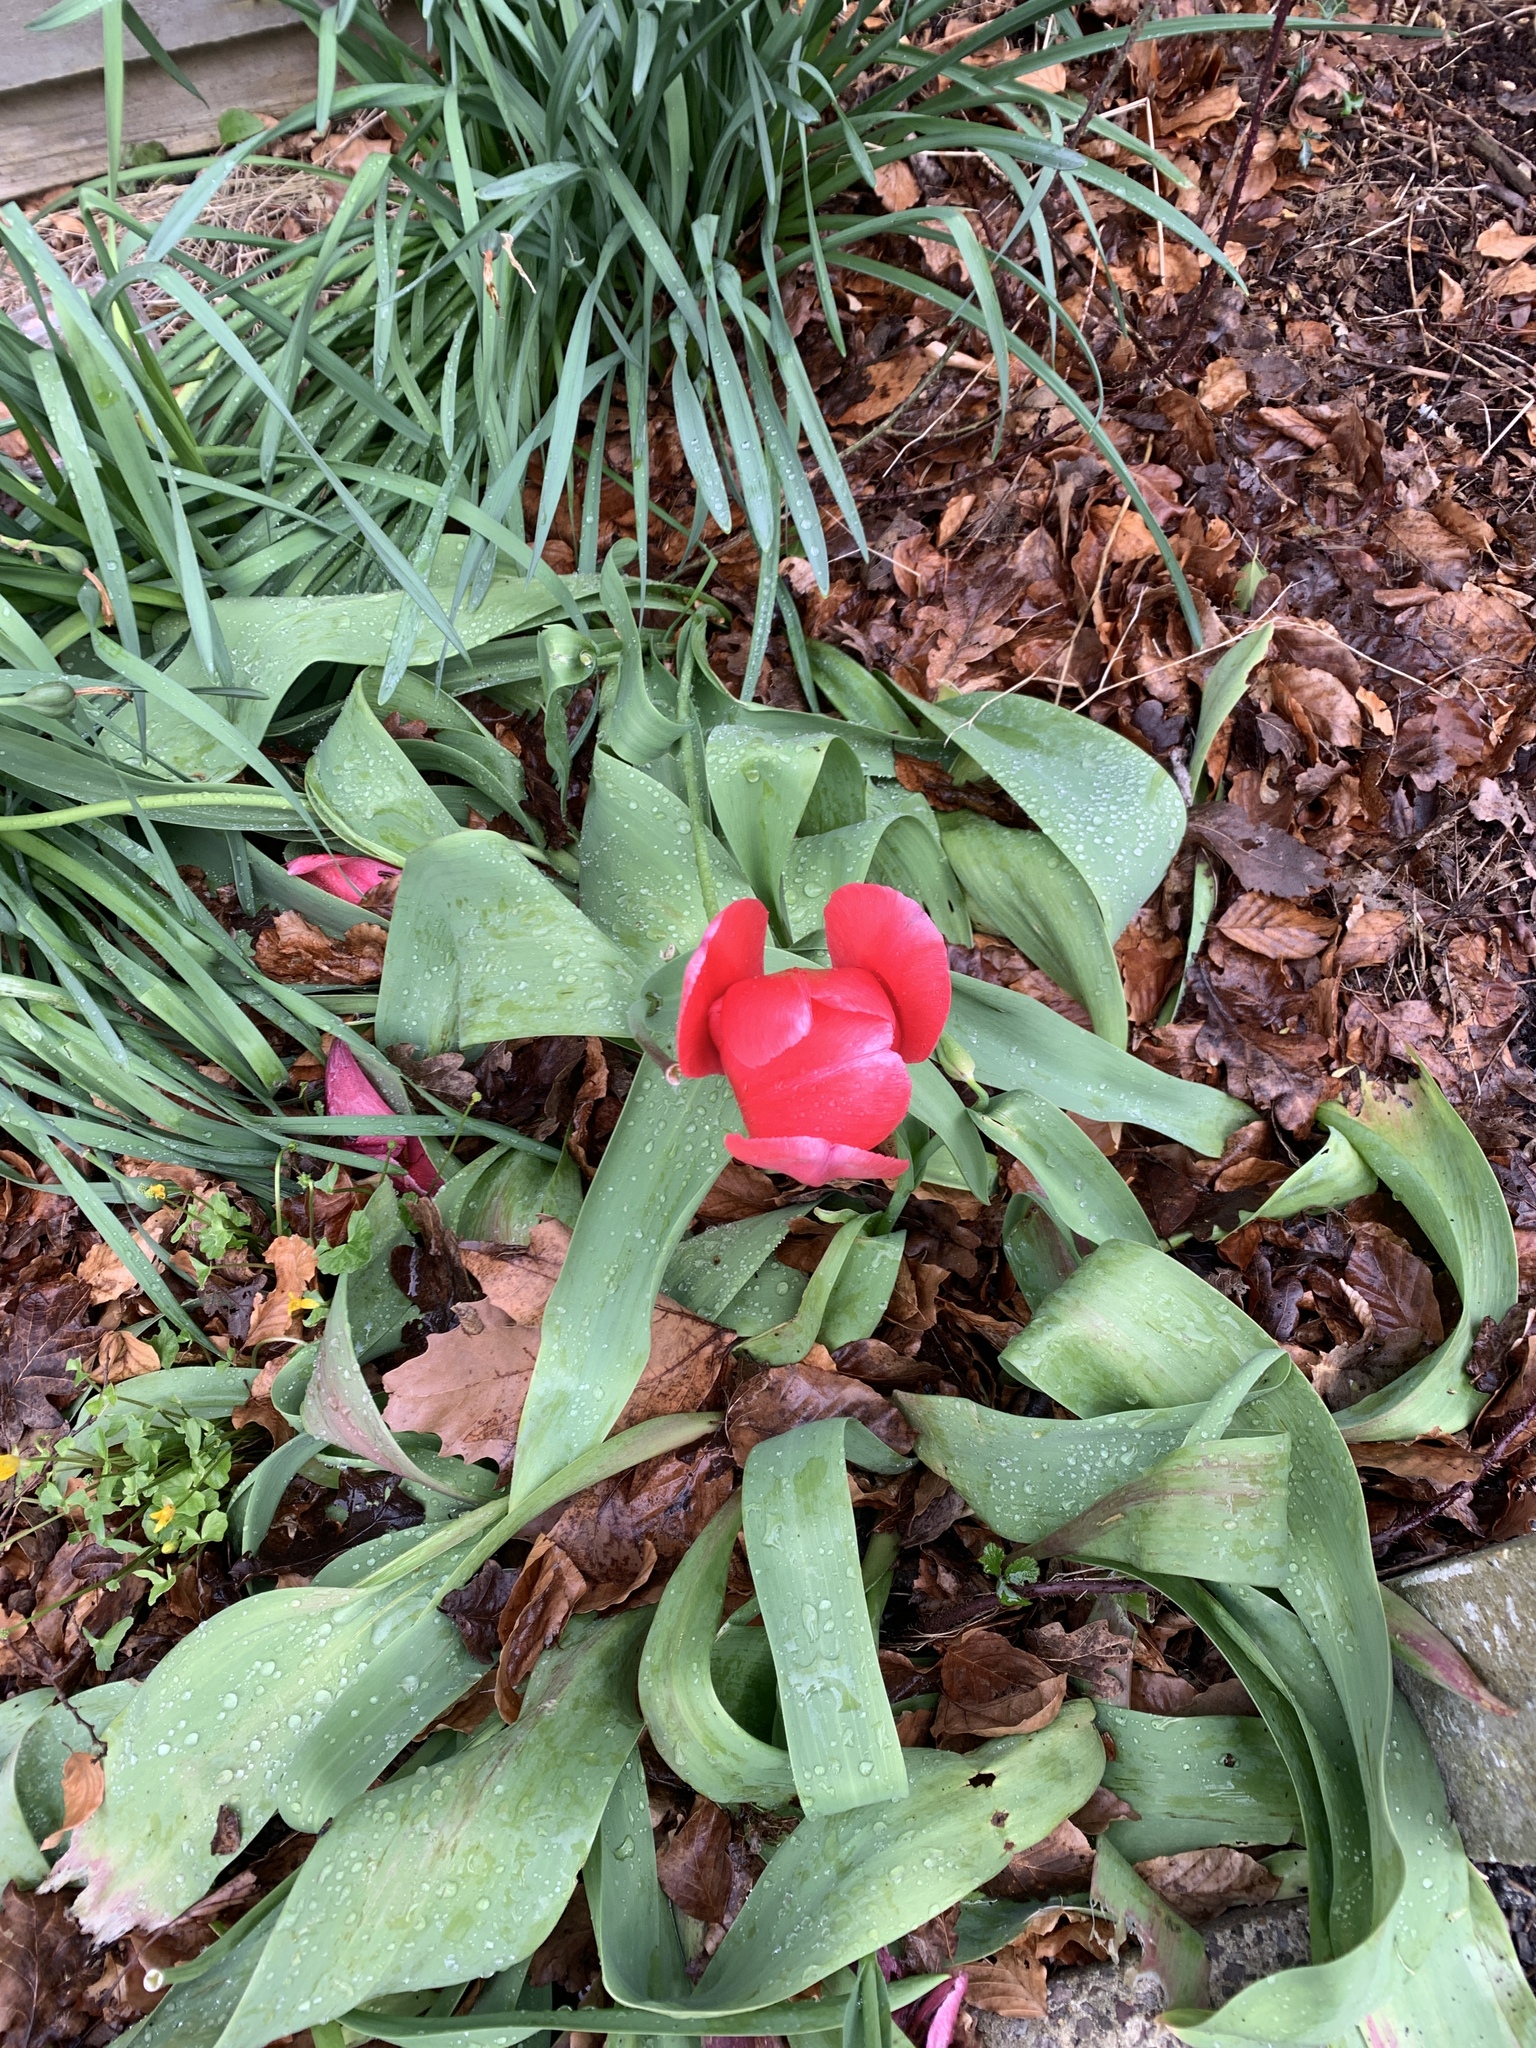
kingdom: Plantae
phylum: Tracheophyta
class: Liliopsida
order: Liliales
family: Liliaceae
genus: Tulipa
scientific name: Tulipa gesneriana
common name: Garden tulip
